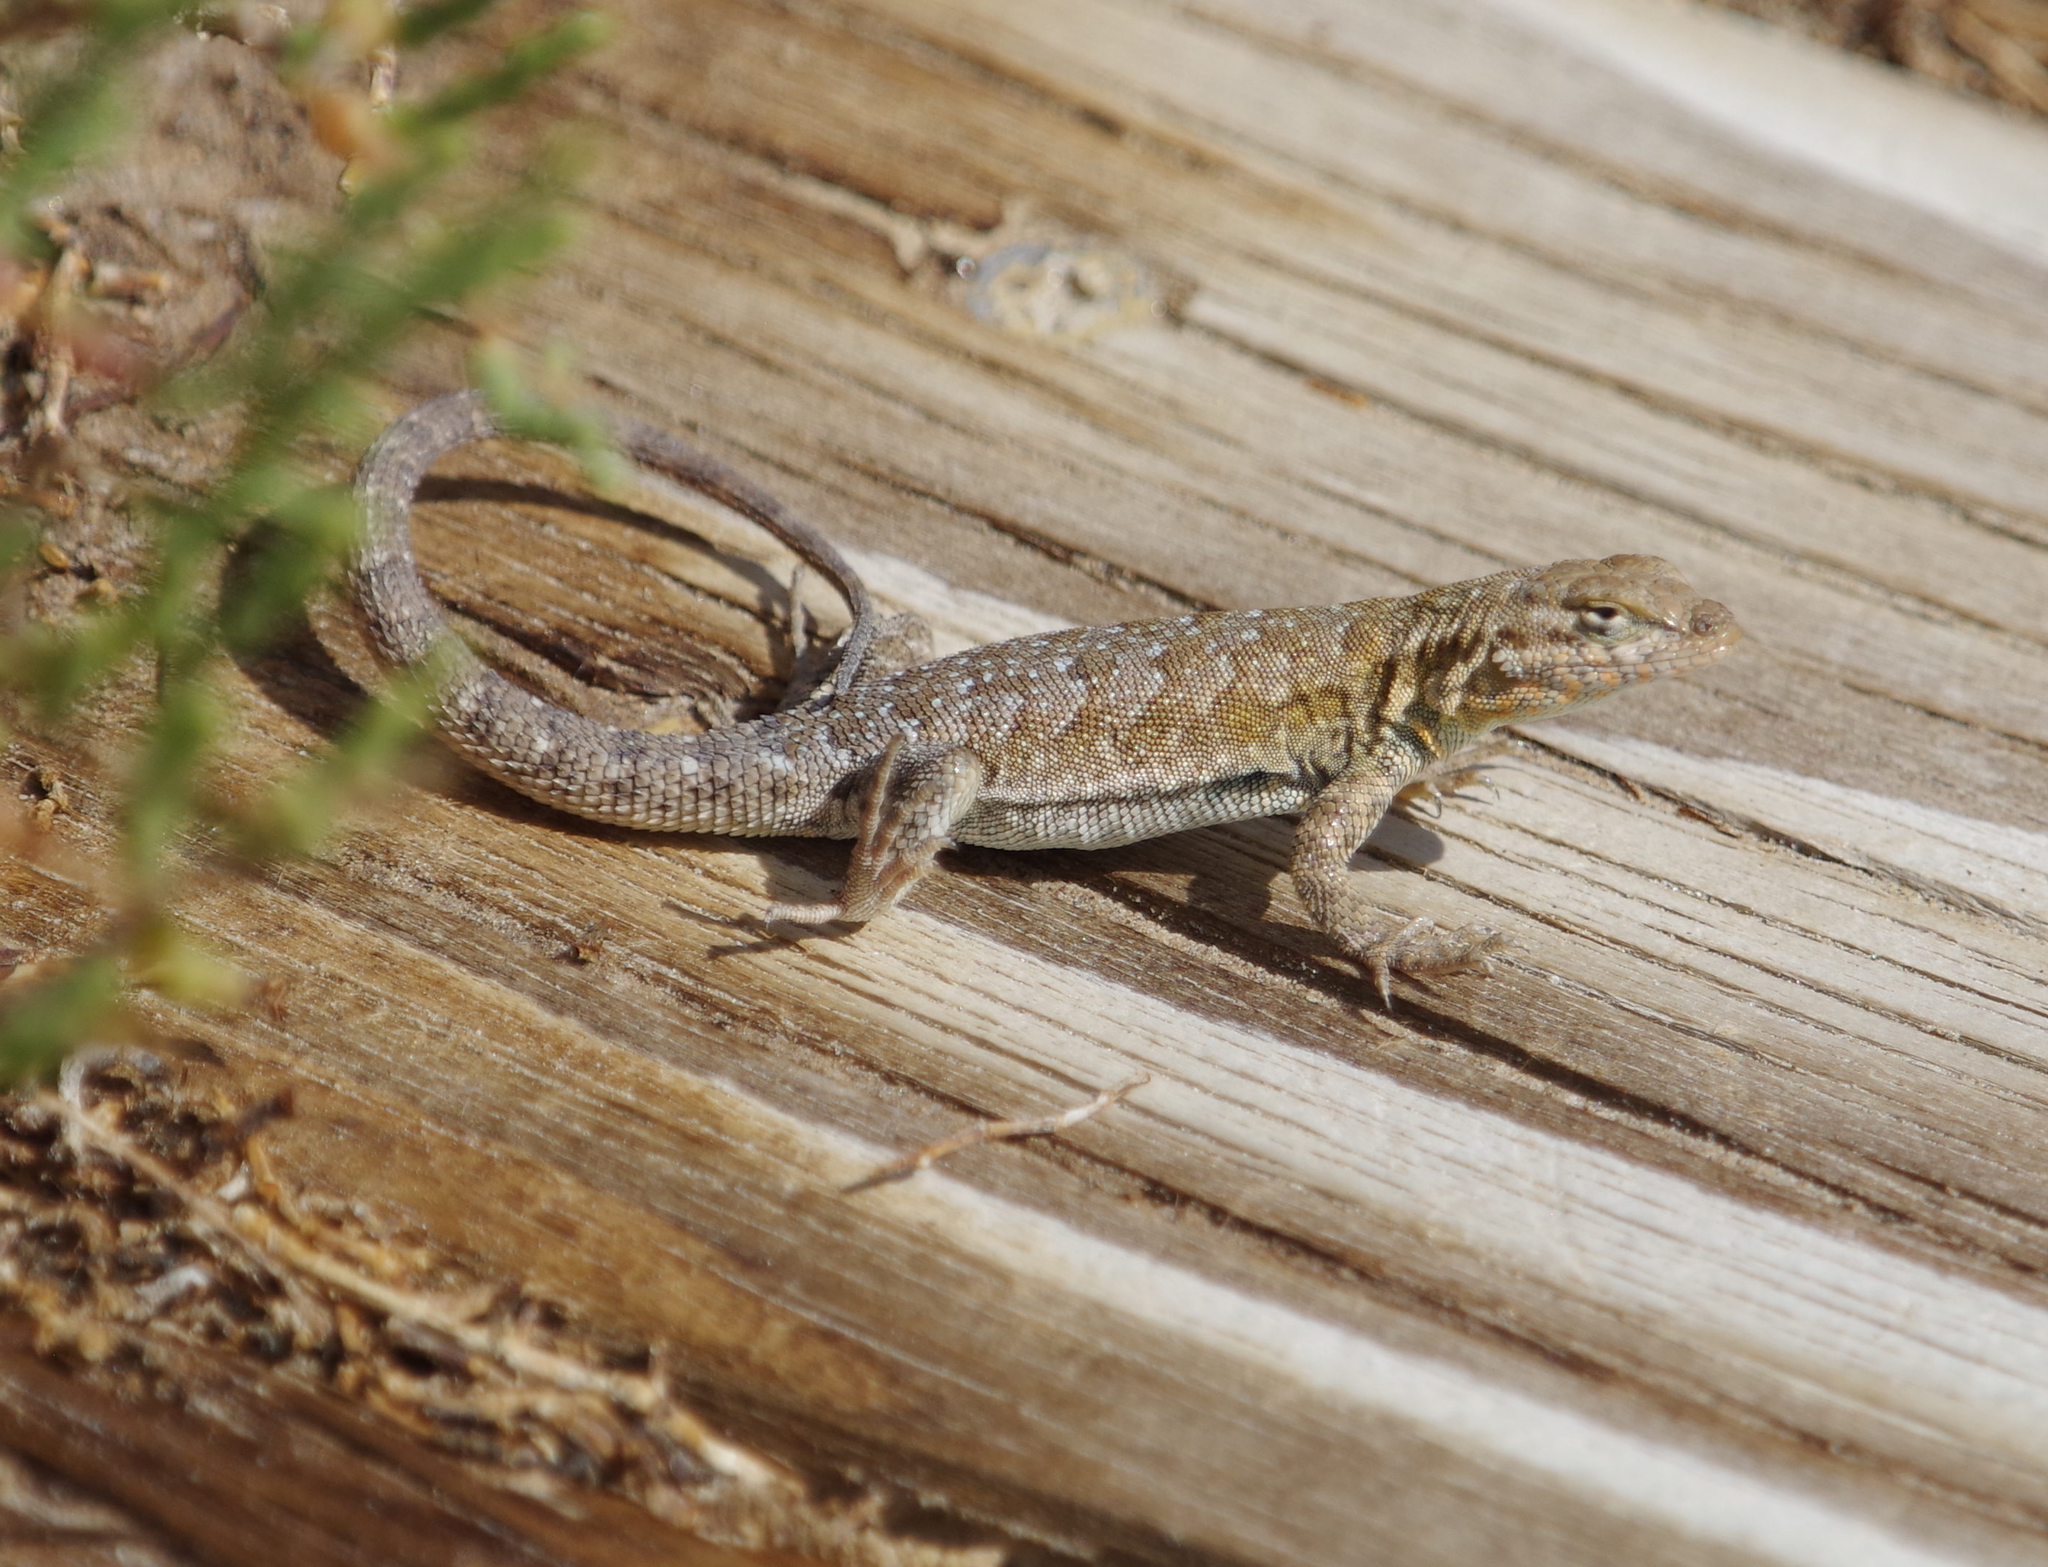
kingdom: Animalia
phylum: Chordata
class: Squamata
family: Phrynosomatidae
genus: Uta
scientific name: Uta stansburiana
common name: Side-blotched lizard
